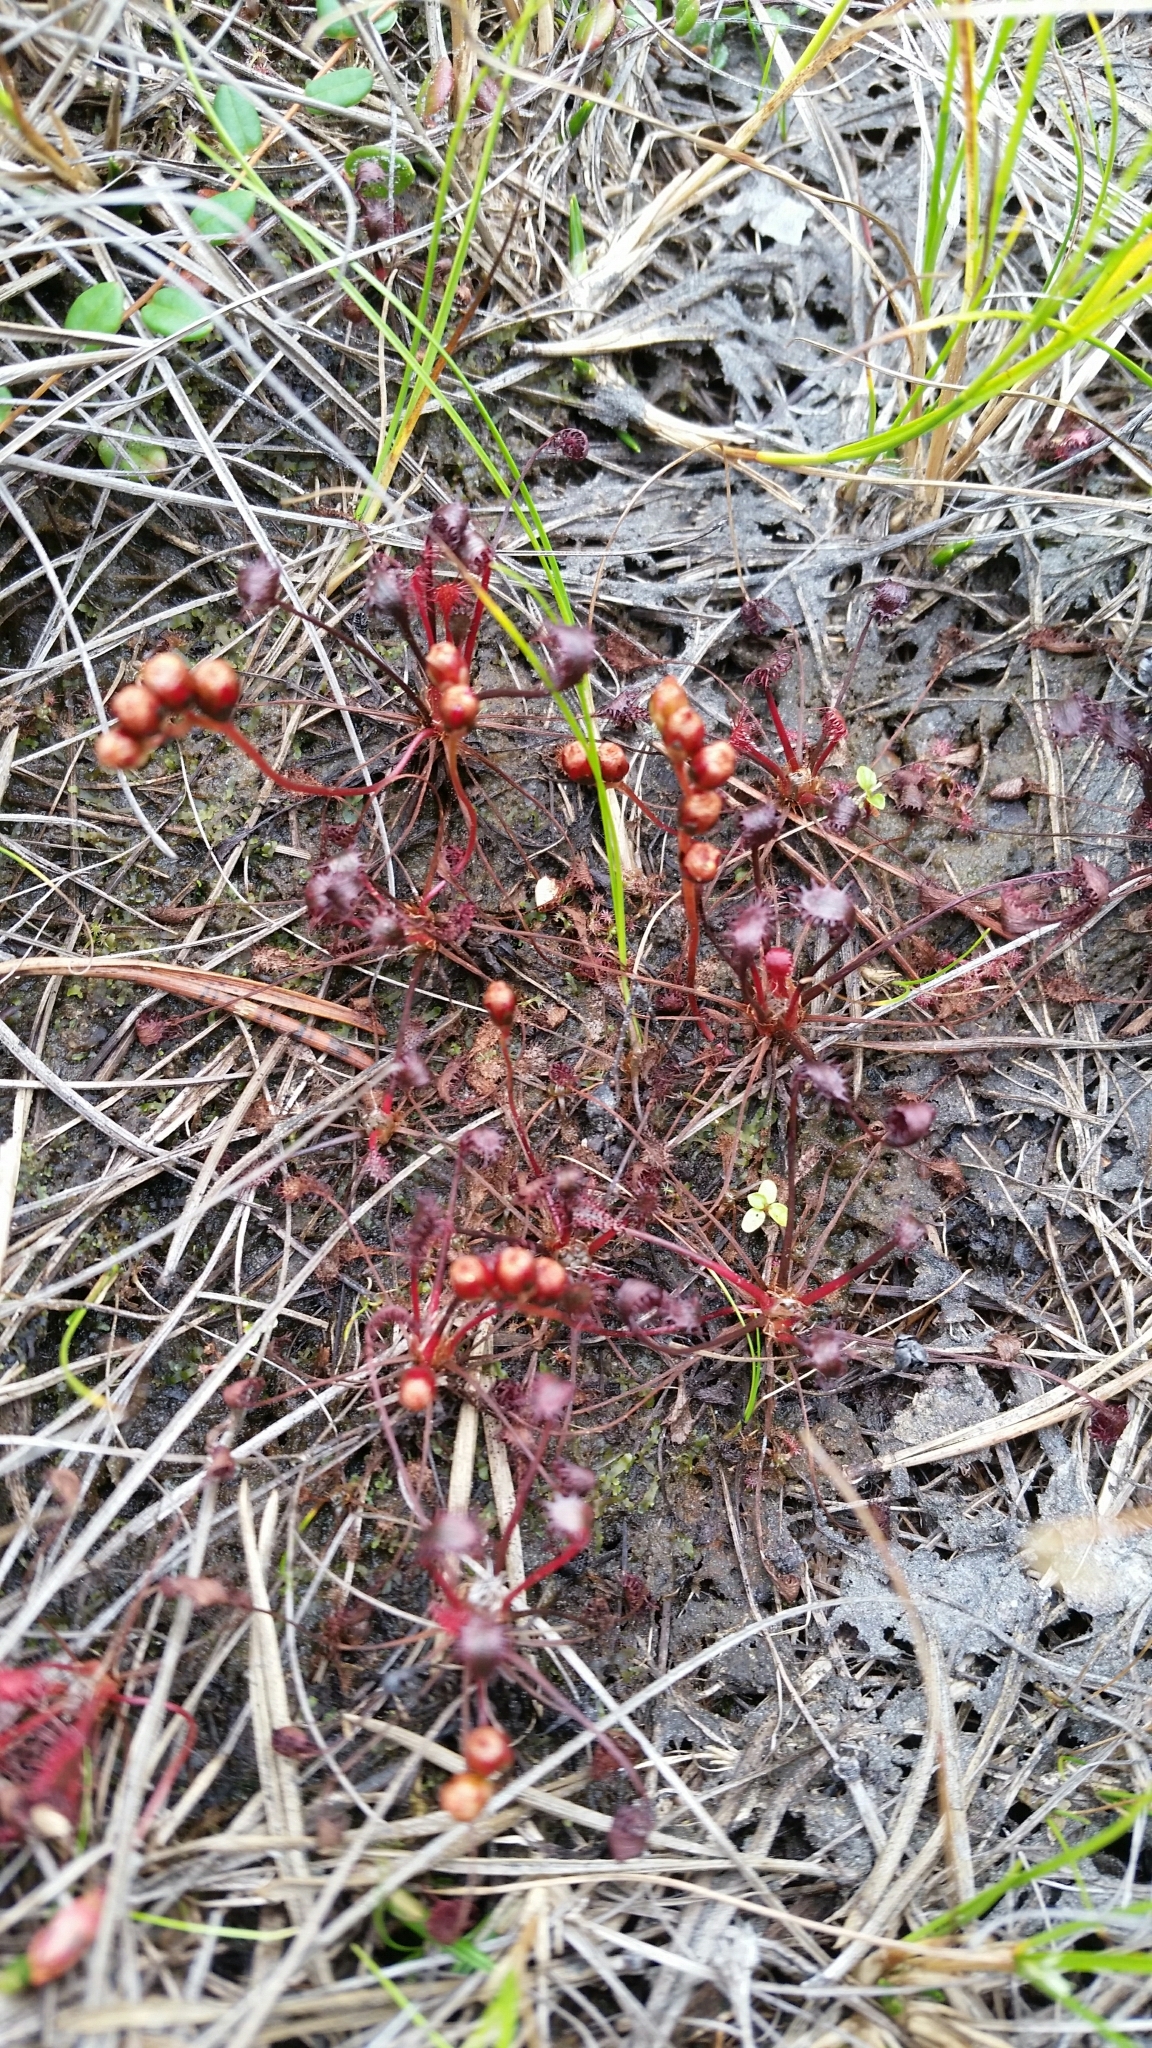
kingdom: Plantae
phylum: Tracheophyta
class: Magnoliopsida
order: Caryophyllales
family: Droseraceae
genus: Drosera
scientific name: Drosera intermedia
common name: Oblong-leaved sundew
